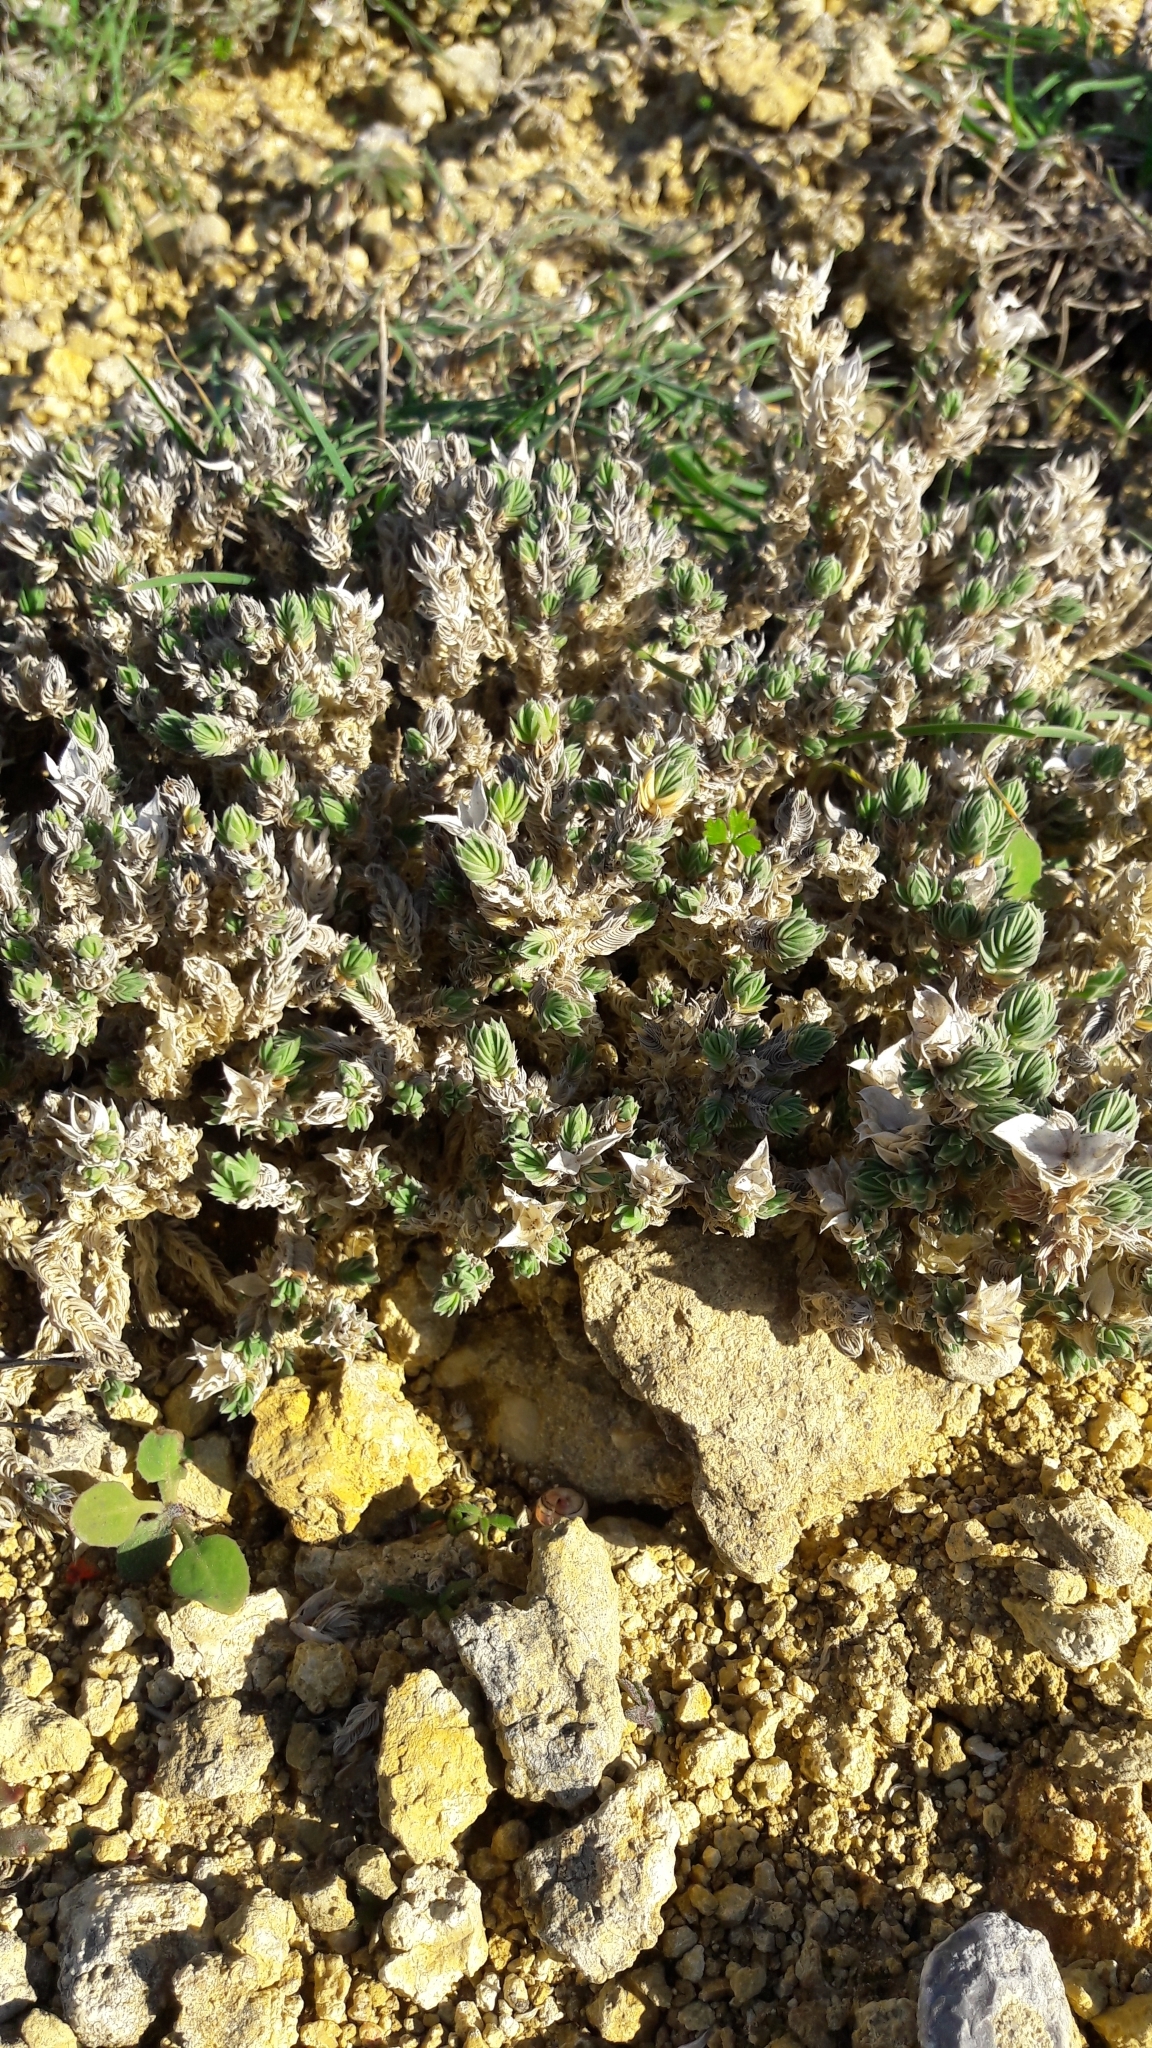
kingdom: Plantae
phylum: Tracheophyta
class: Magnoliopsida
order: Gentianales
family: Rubiaceae
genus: Crucianella
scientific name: Crucianella maritima
